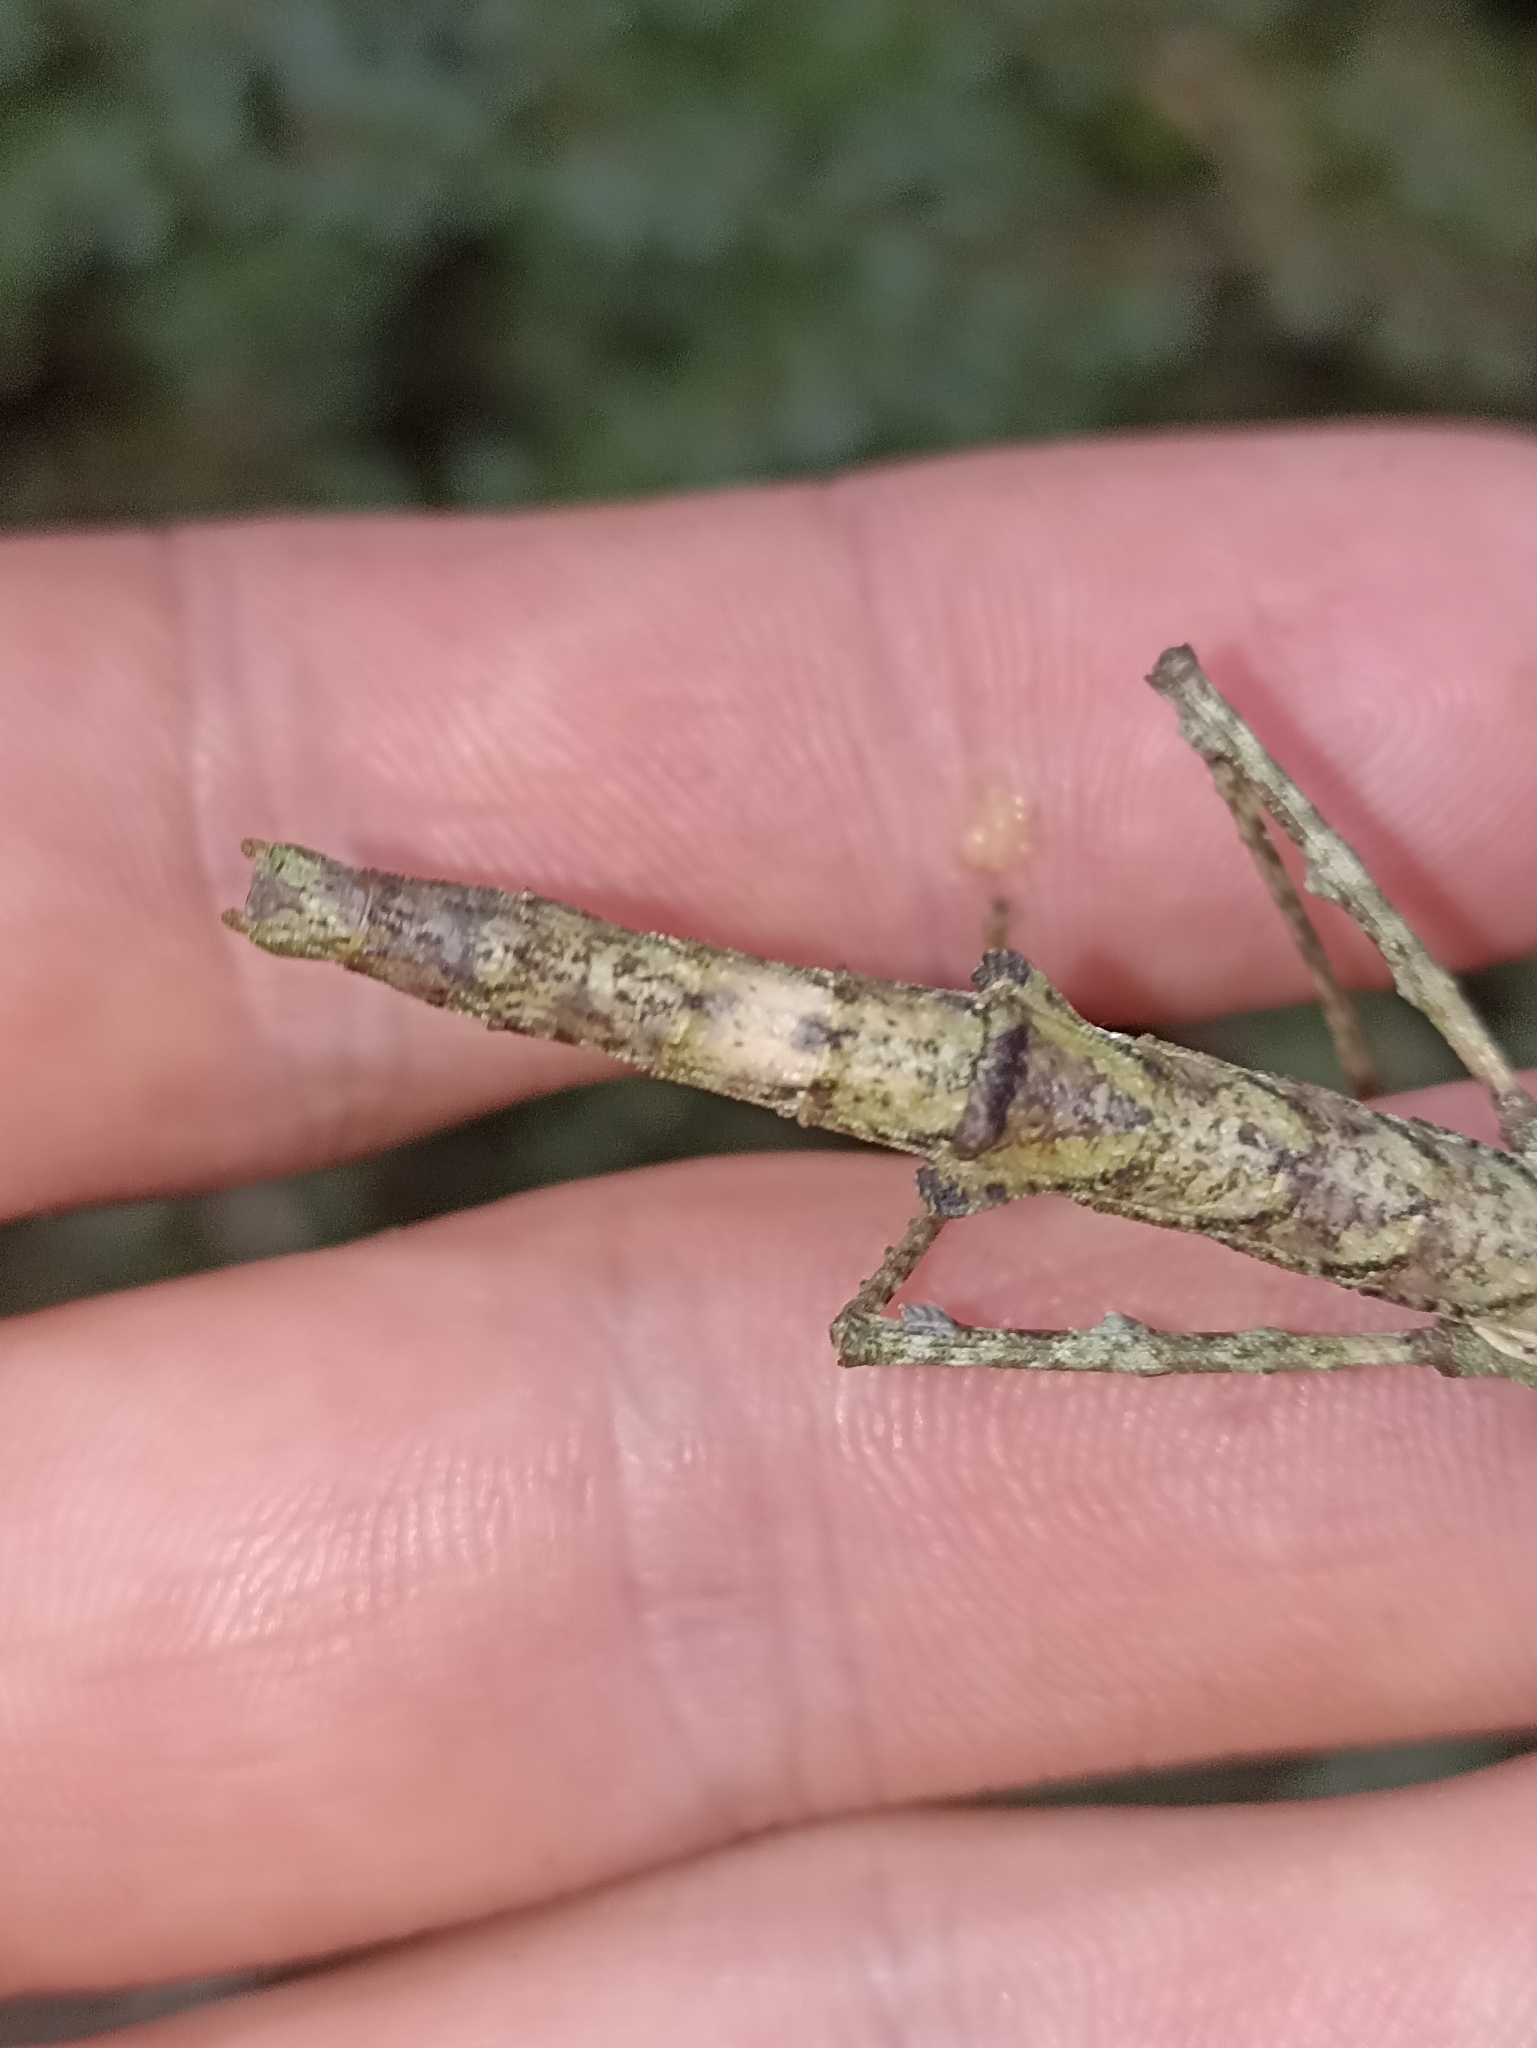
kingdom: Animalia
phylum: Arthropoda
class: Insecta
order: Phasmida
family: Phasmatidae
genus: Niveaphasma
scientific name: Niveaphasma annulatum
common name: Hutton's stick insect
